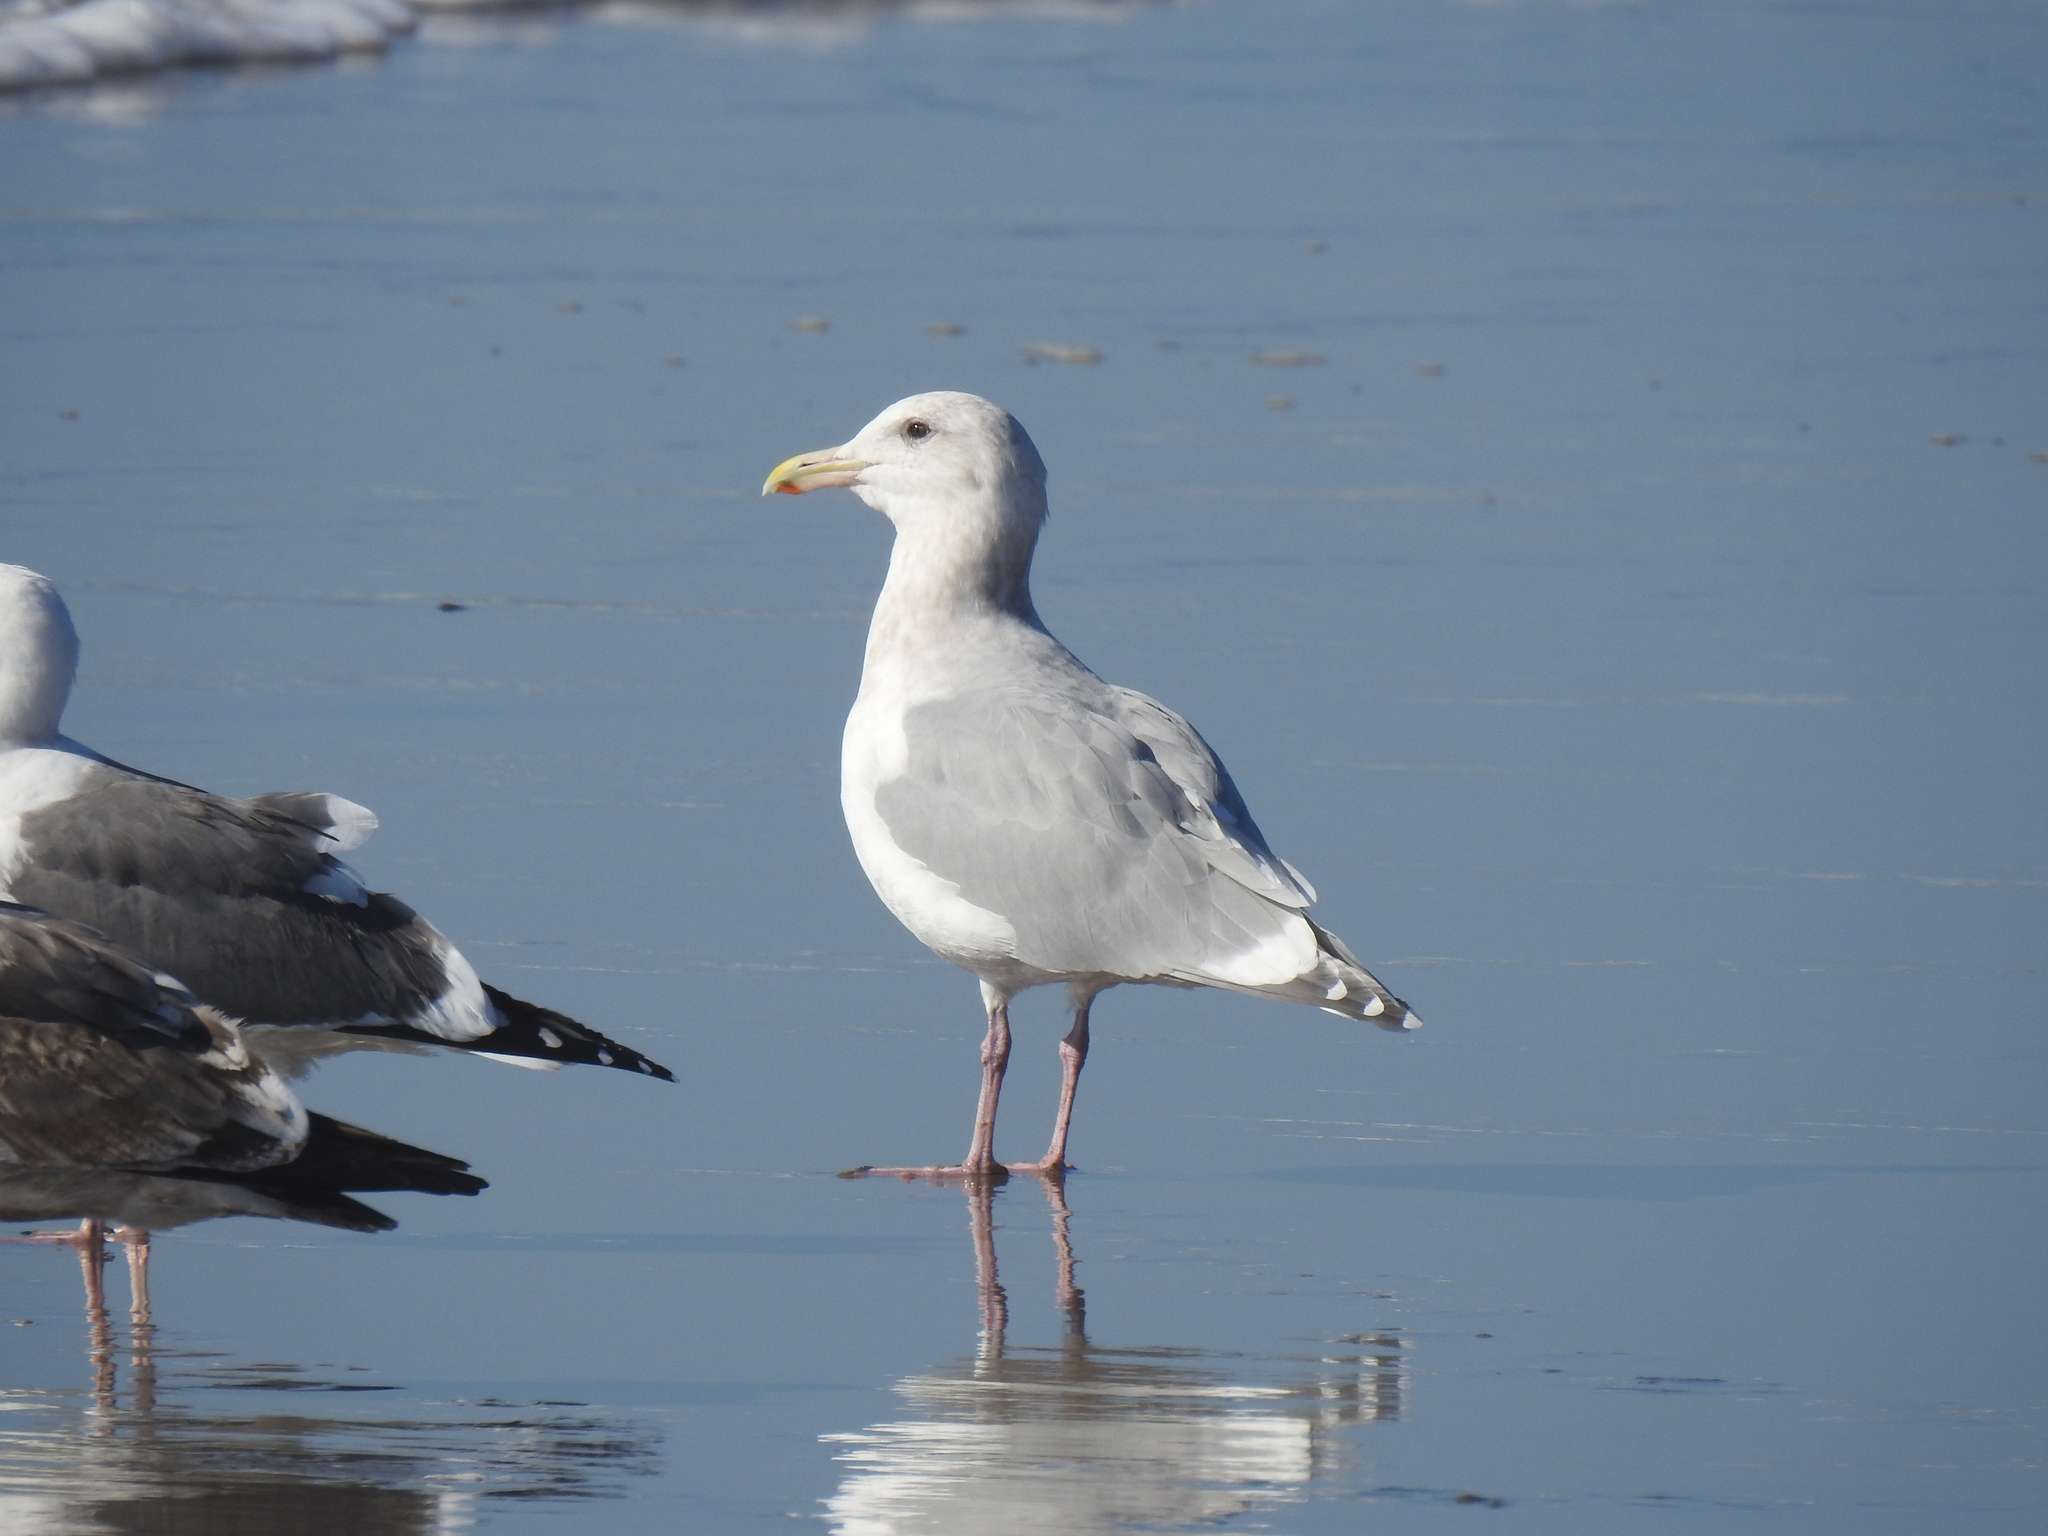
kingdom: Animalia
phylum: Chordata
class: Aves
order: Charadriiformes
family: Laridae
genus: Larus
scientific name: Larus glaucescens
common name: Glaucous-winged gull
